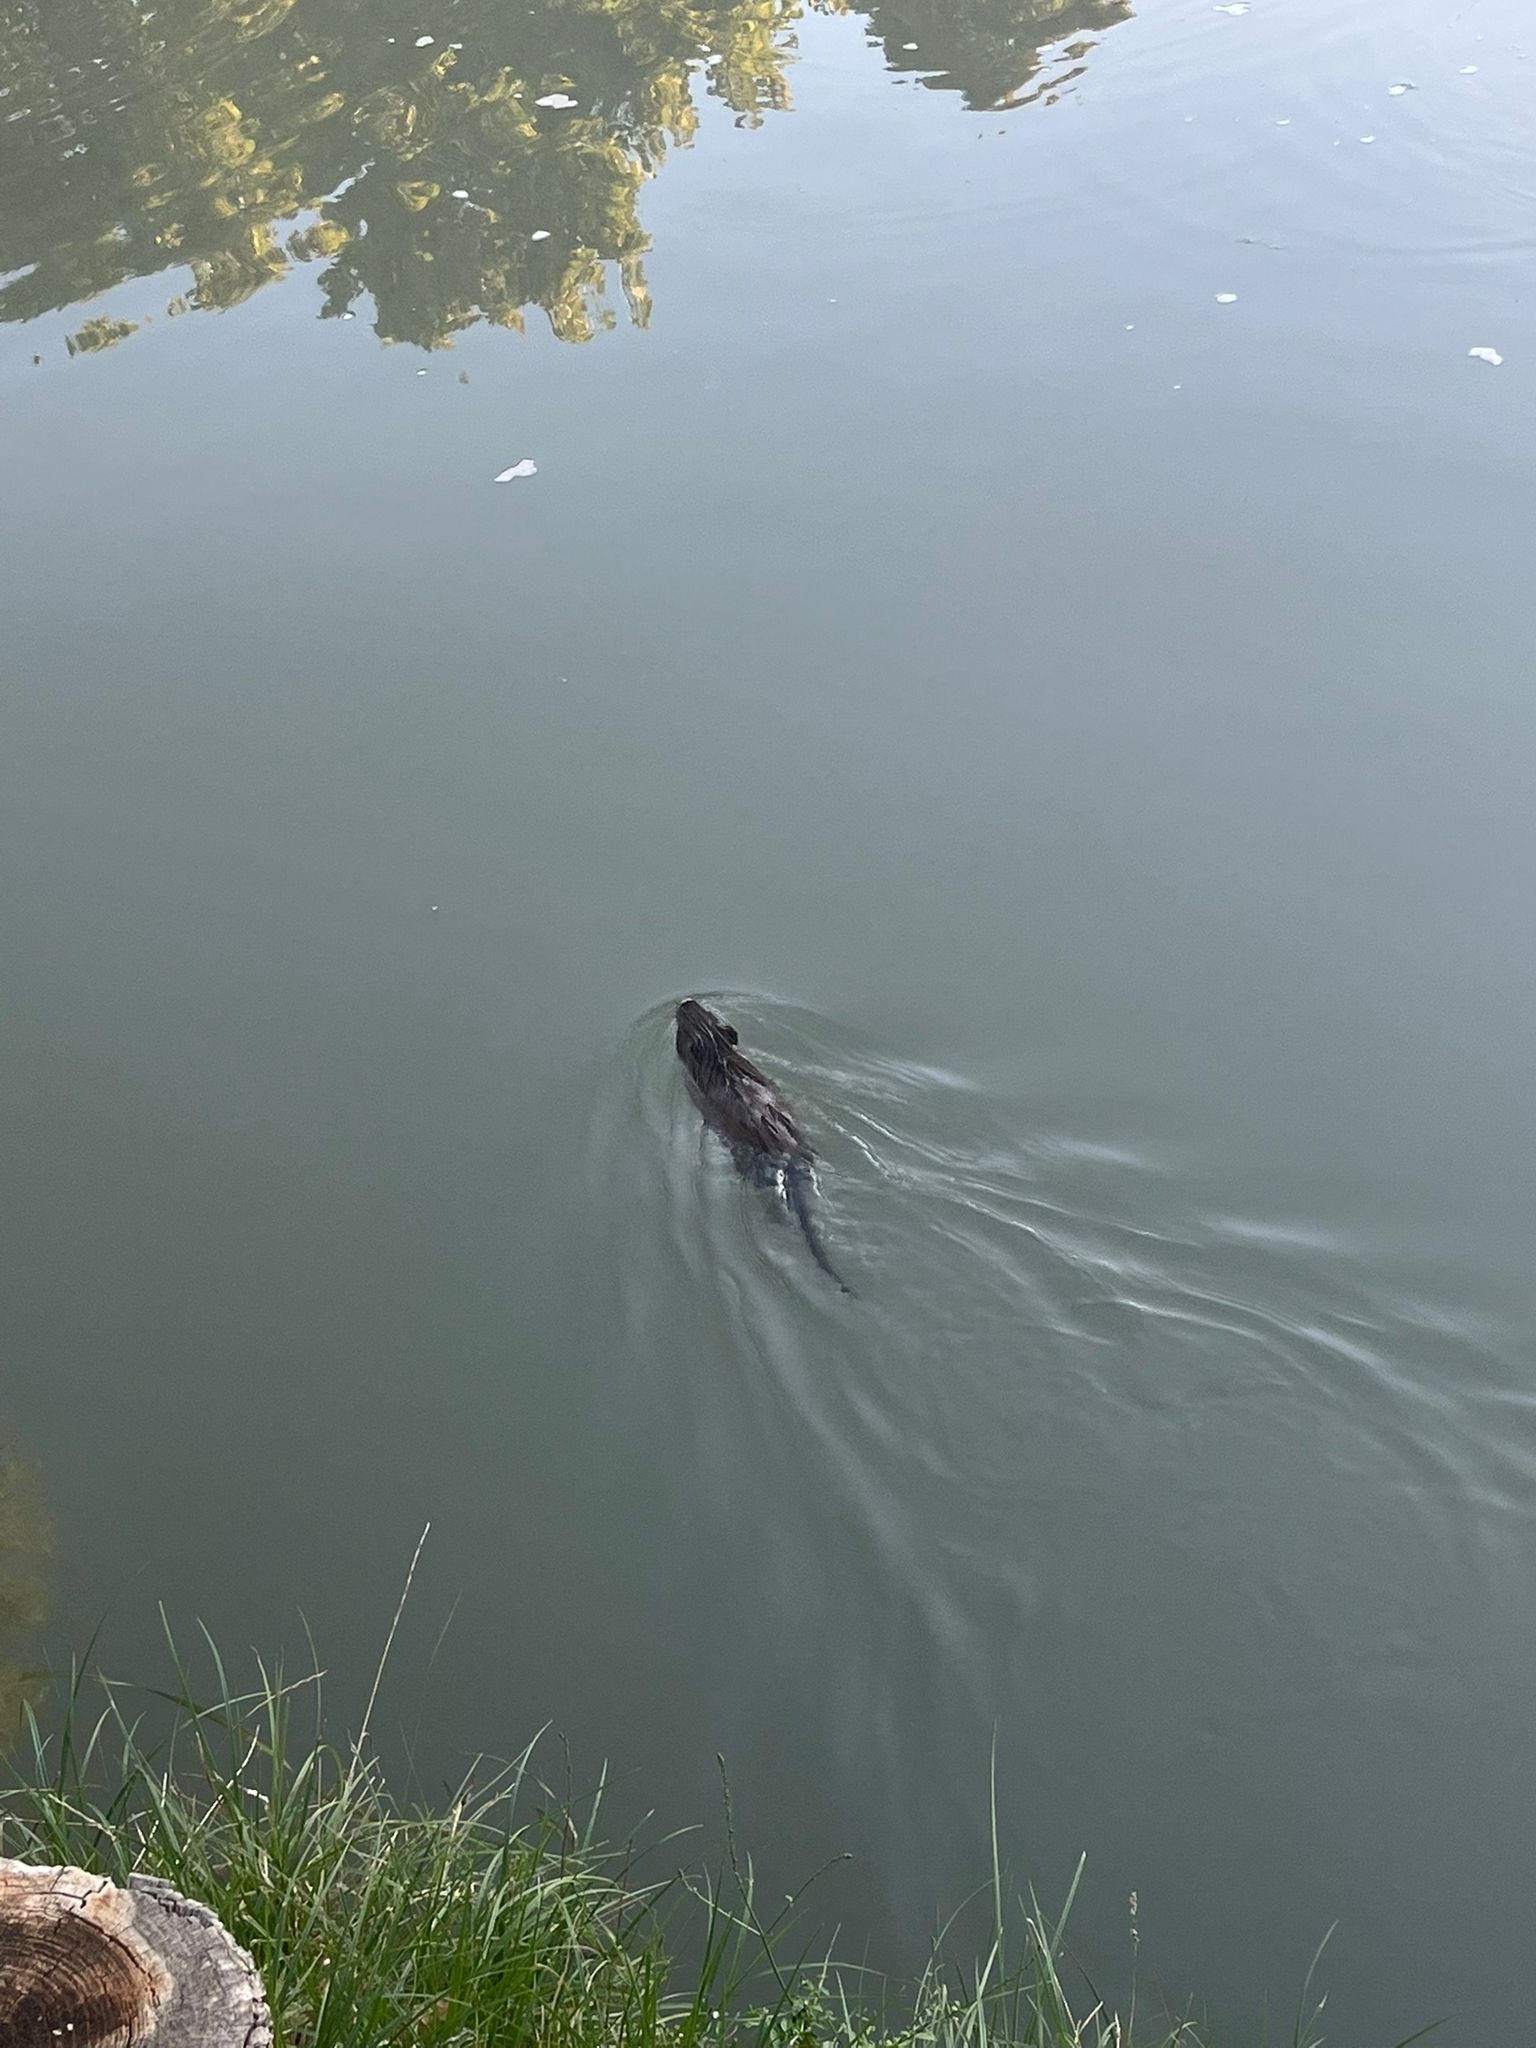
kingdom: Animalia
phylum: Chordata
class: Mammalia
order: Rodentia
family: Myocastoridae
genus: Myocastor
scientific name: Myocastor coypus
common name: Coypu
